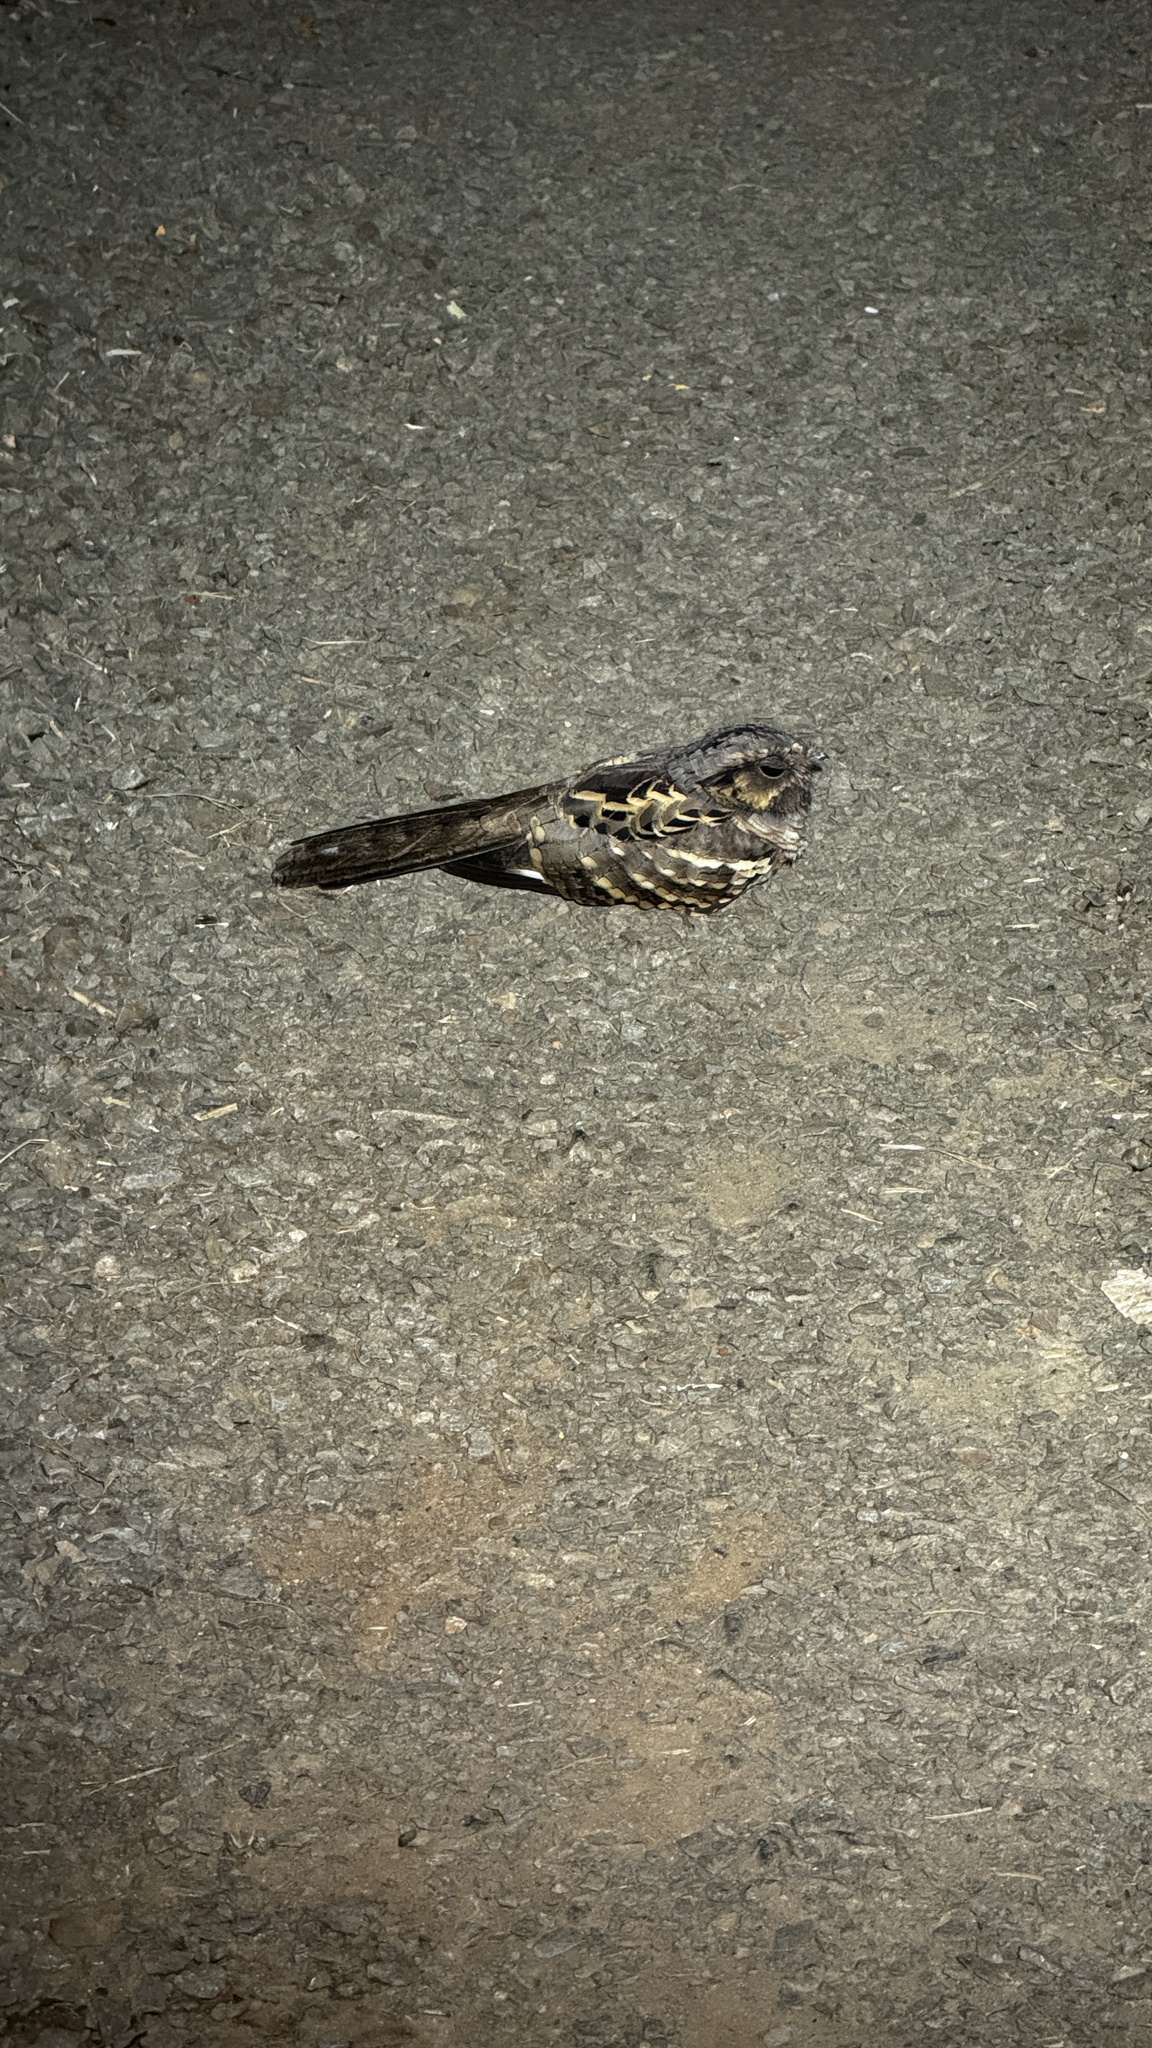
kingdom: Animalia
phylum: Chordata
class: Aves
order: Caprimulgiformes
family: Caprimulgidae
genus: Nyctidromus
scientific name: Nyctidromus albicollis
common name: Pauraque
